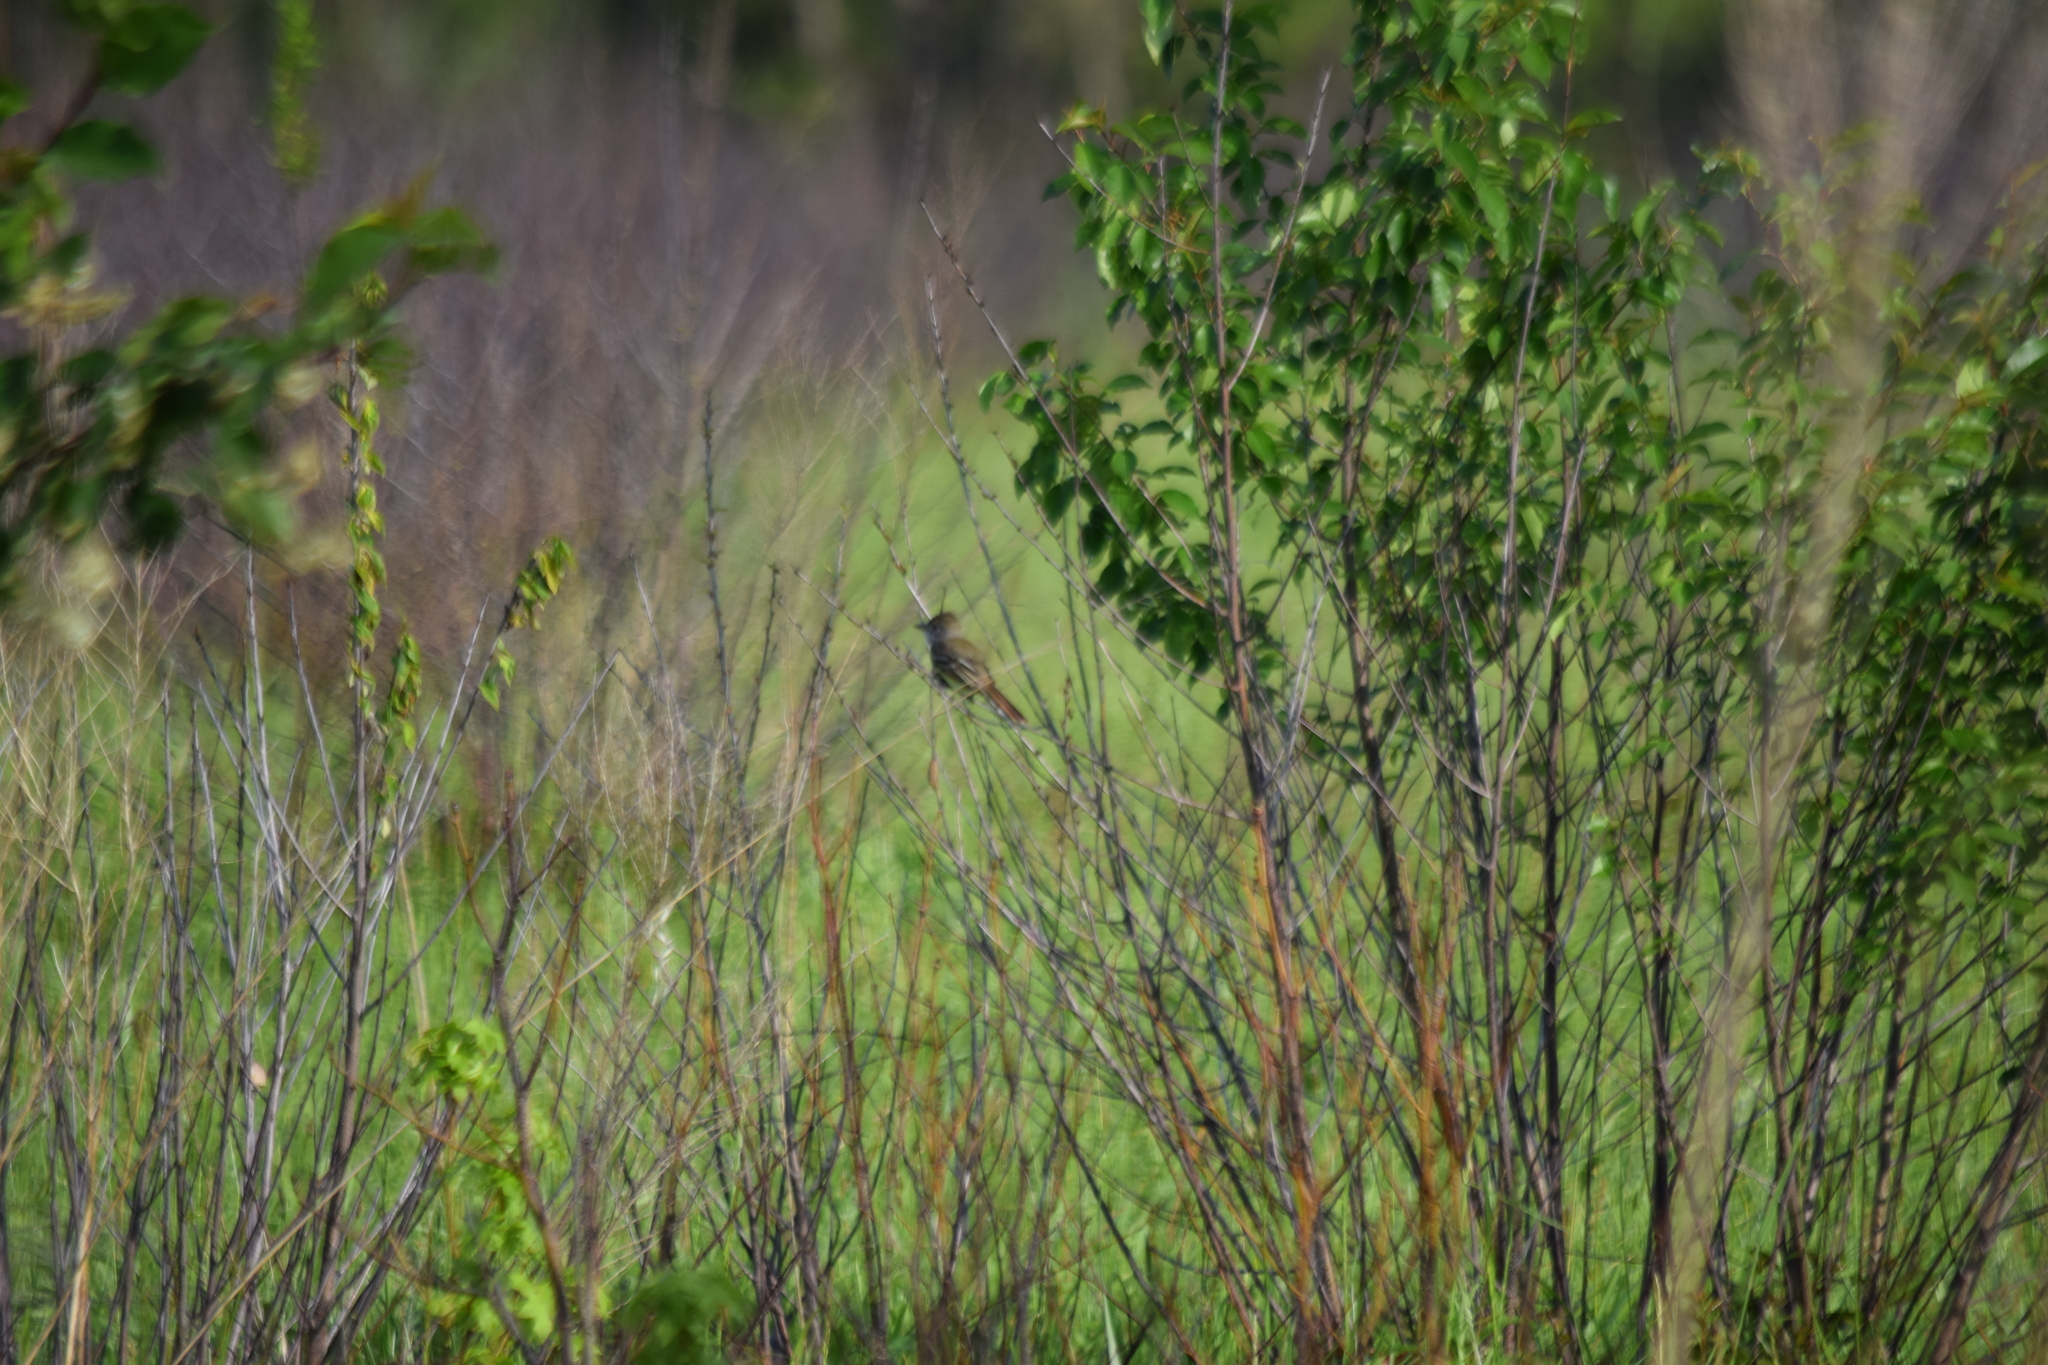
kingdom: Animalia
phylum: Chordata
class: Aves
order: Passeriformes
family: Tyrannidae
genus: Myiarchus
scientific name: Myiarchus crinitus
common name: Great crested flycatcher
